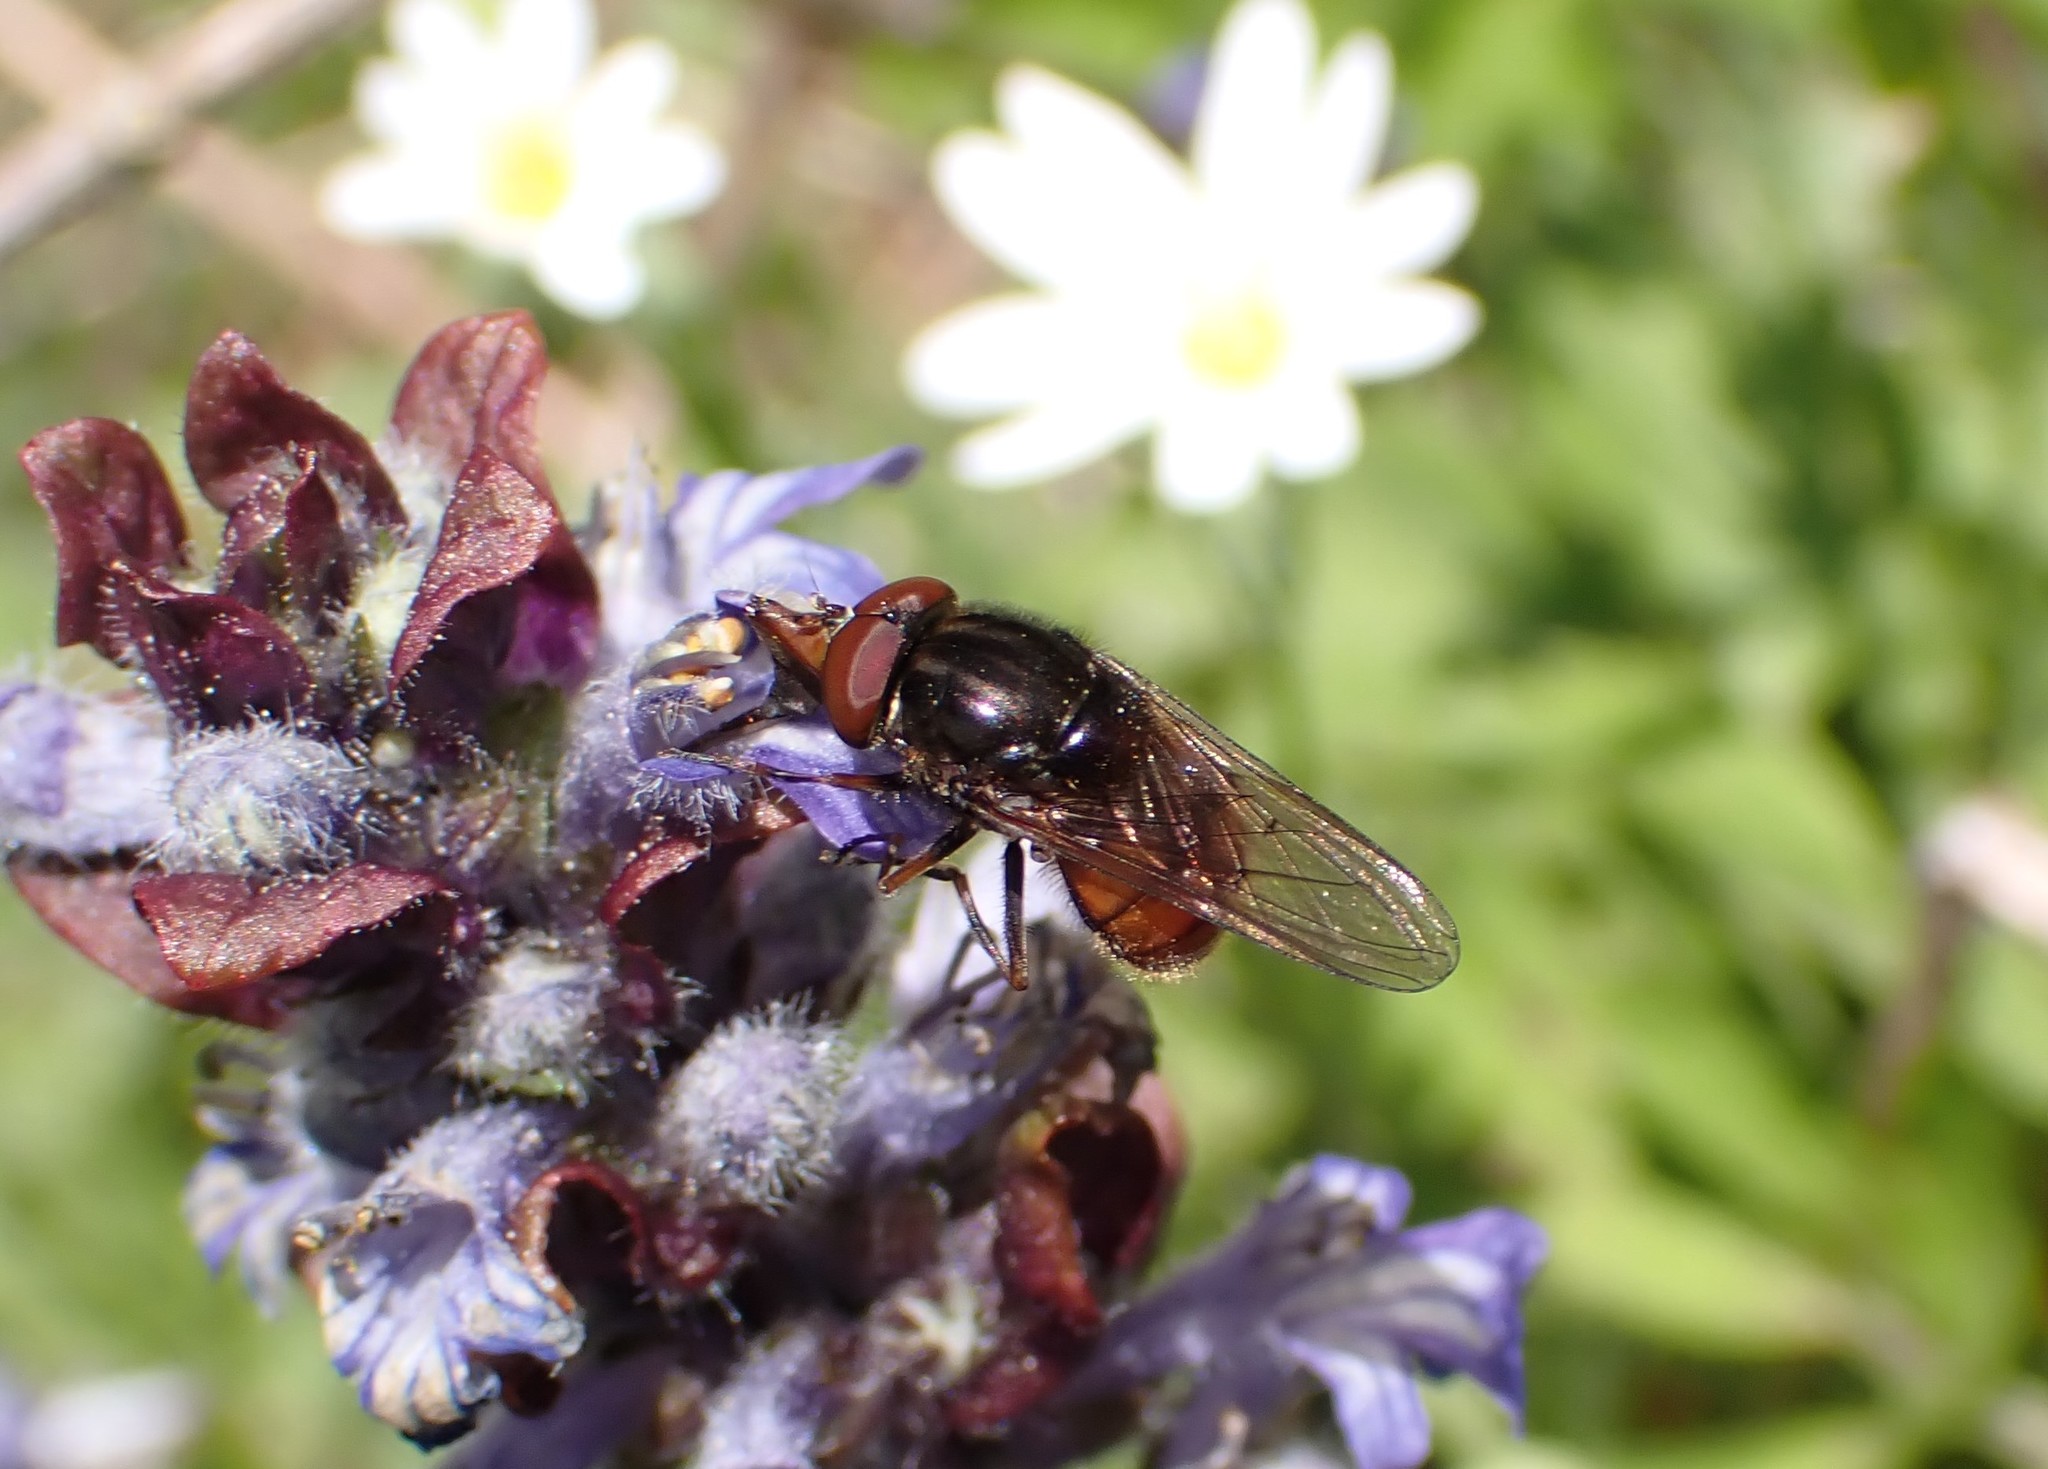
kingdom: Animalia
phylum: Arthropoda
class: Insecta
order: Diptera
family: Syrphidae
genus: Rhingia
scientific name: Rhingia campestris
